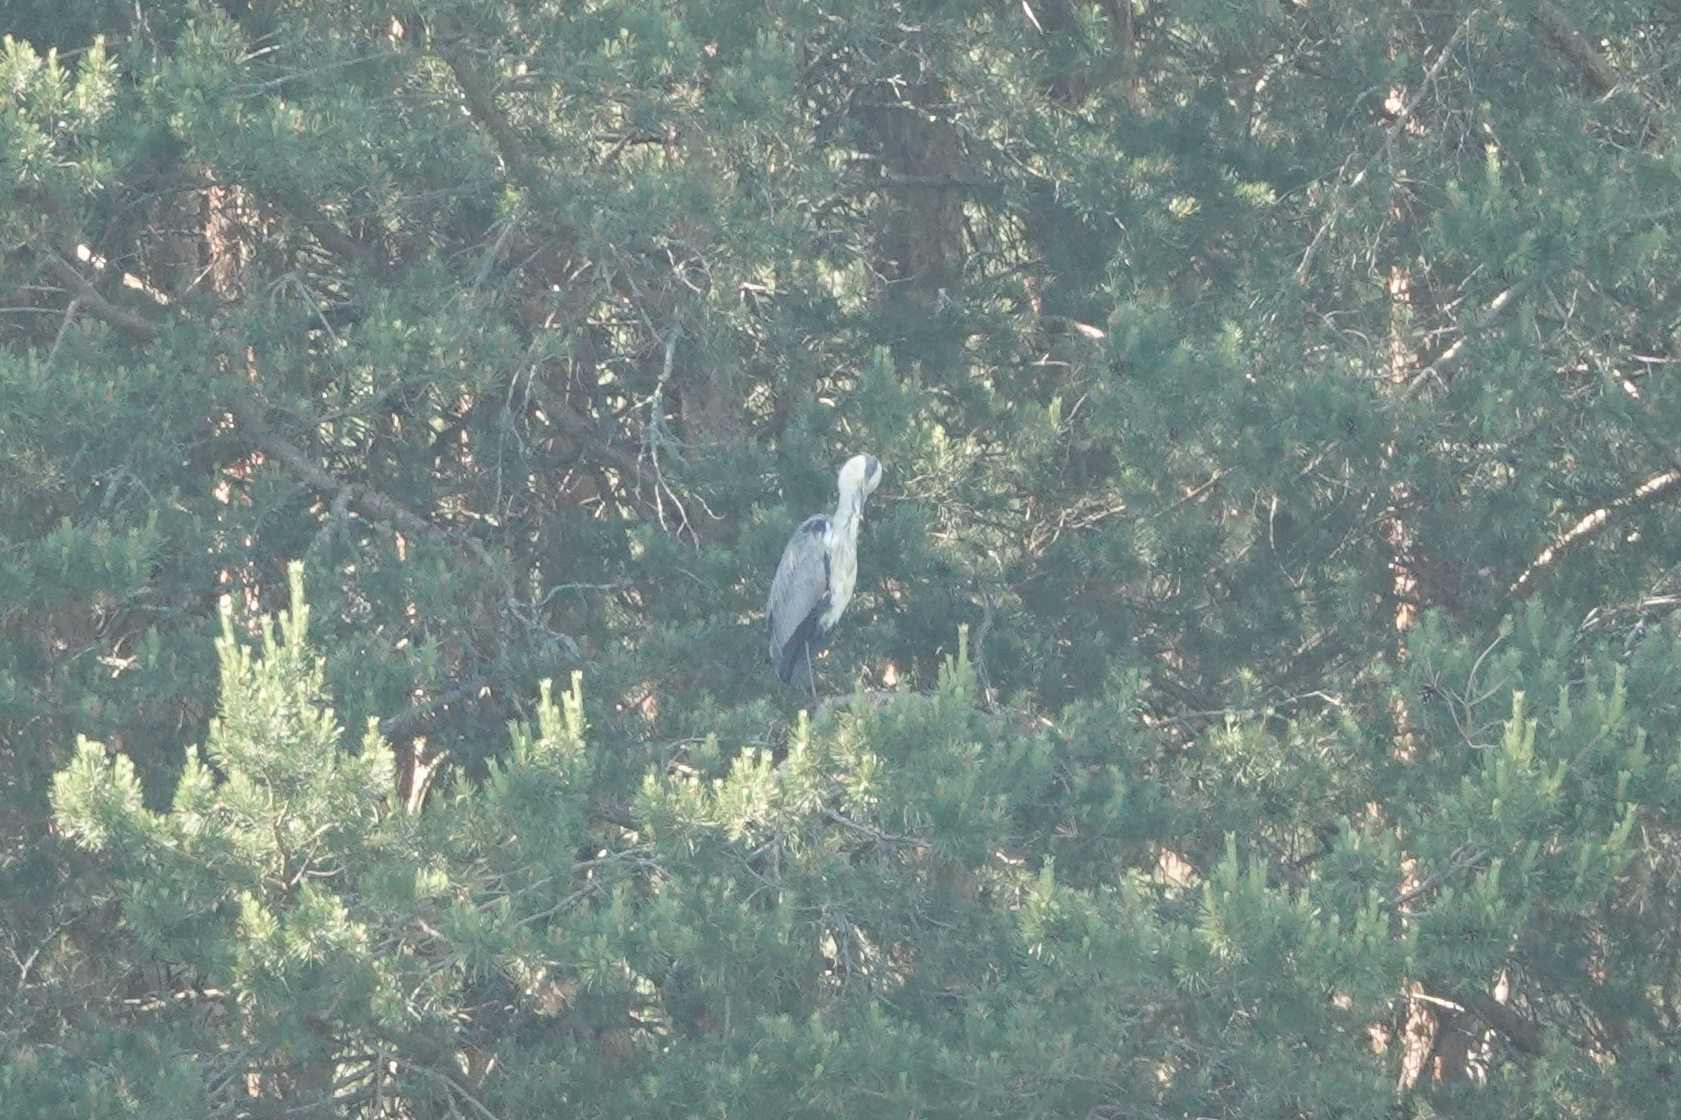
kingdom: Animalia
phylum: Chordata
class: Aves
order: Pelecaniformes
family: Ardeidae
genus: Ardea
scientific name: Ardea cinerea
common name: Grey heron
